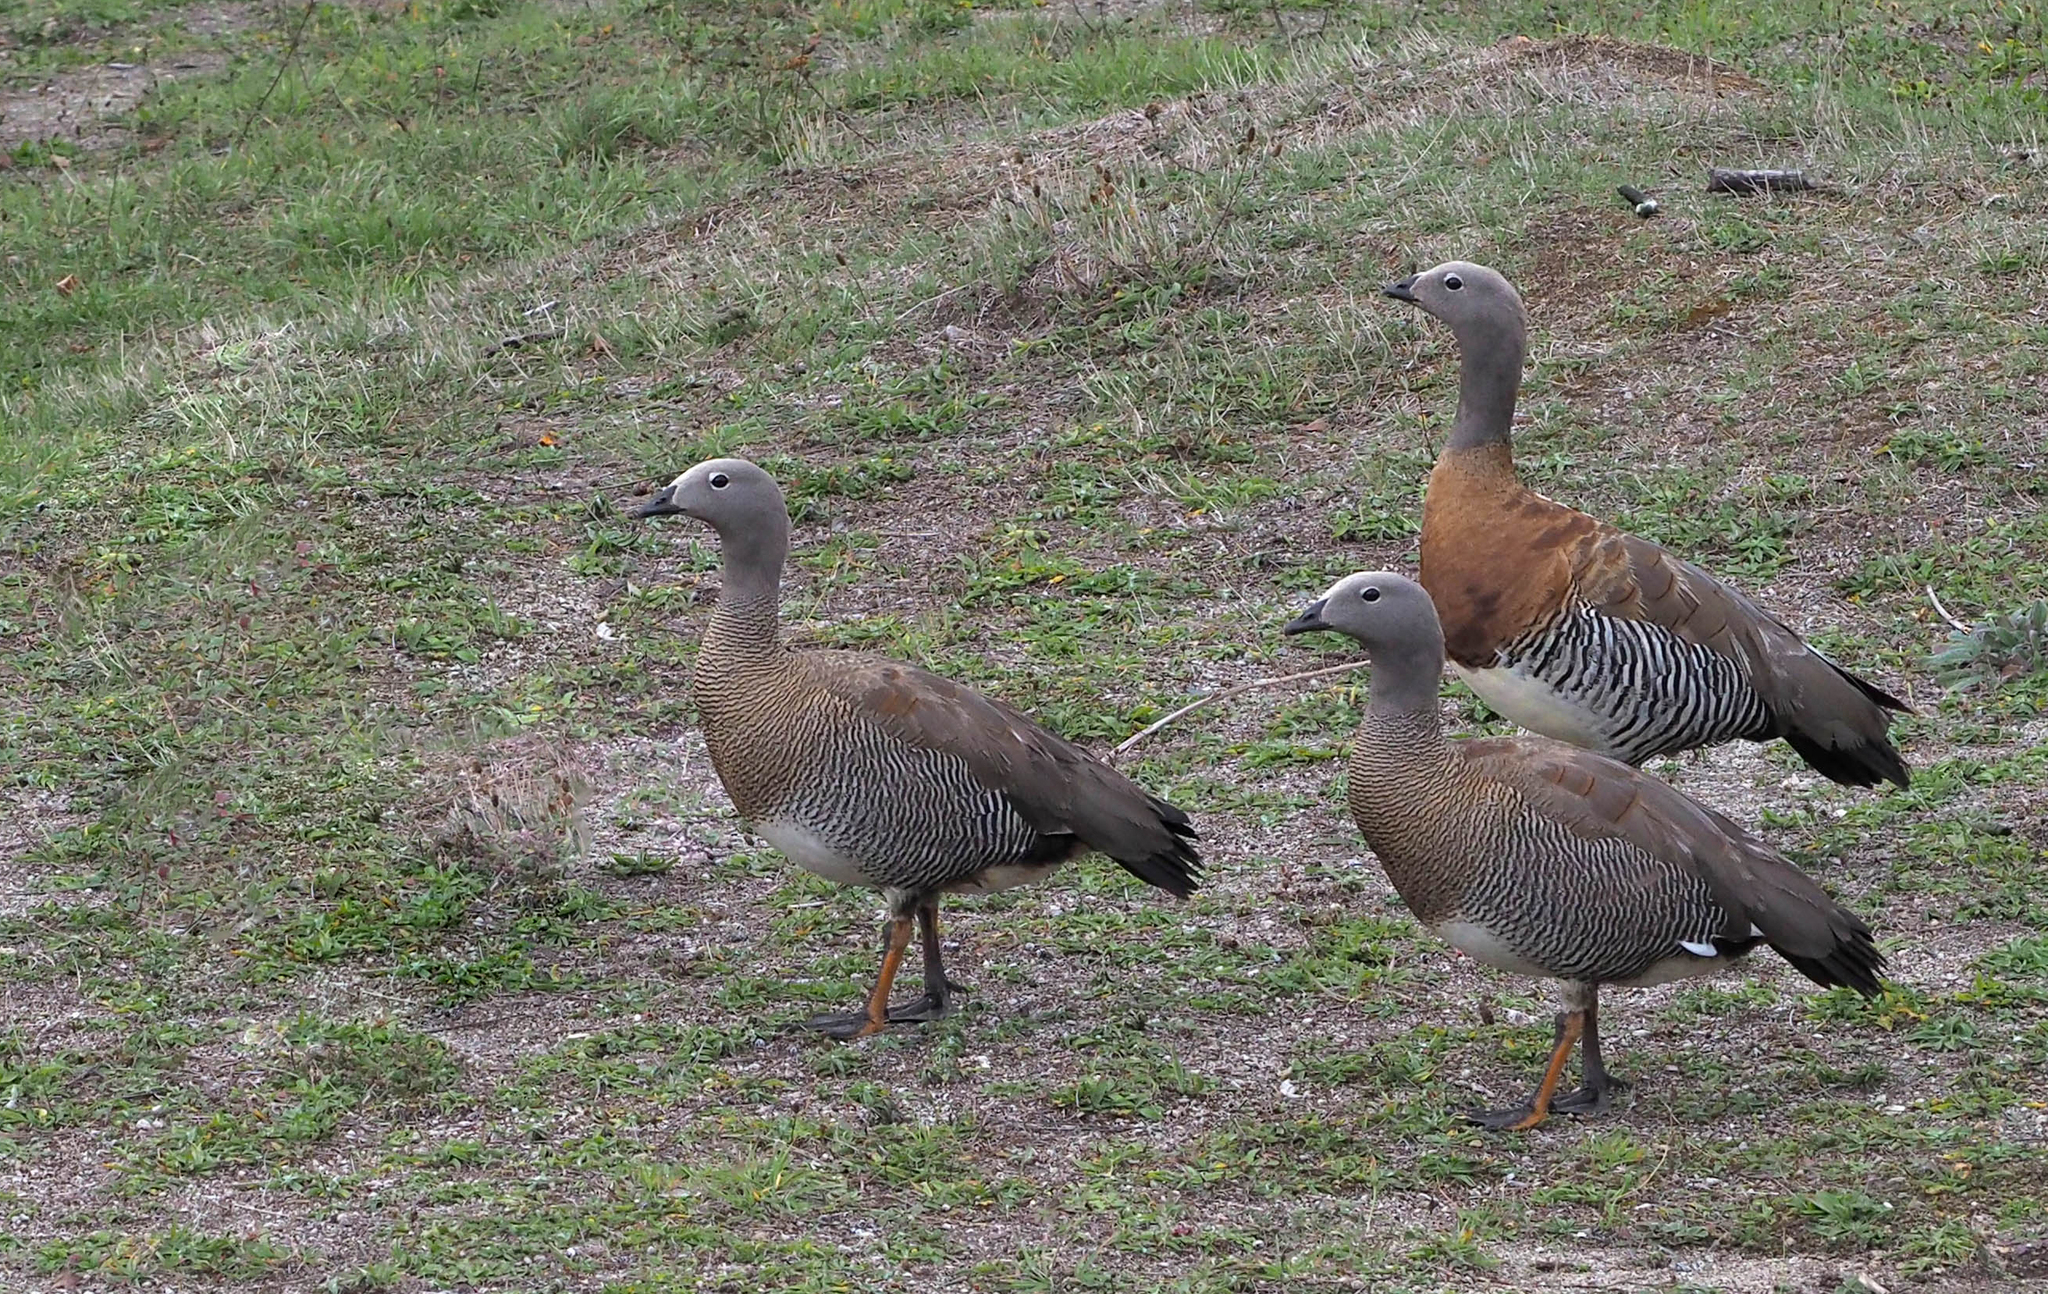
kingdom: Animalia
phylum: Chordata
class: Aves
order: Anseriformes
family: Anatidae
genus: Chloephaga
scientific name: Chloephaga poliocephala
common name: Ashy-headed goose
